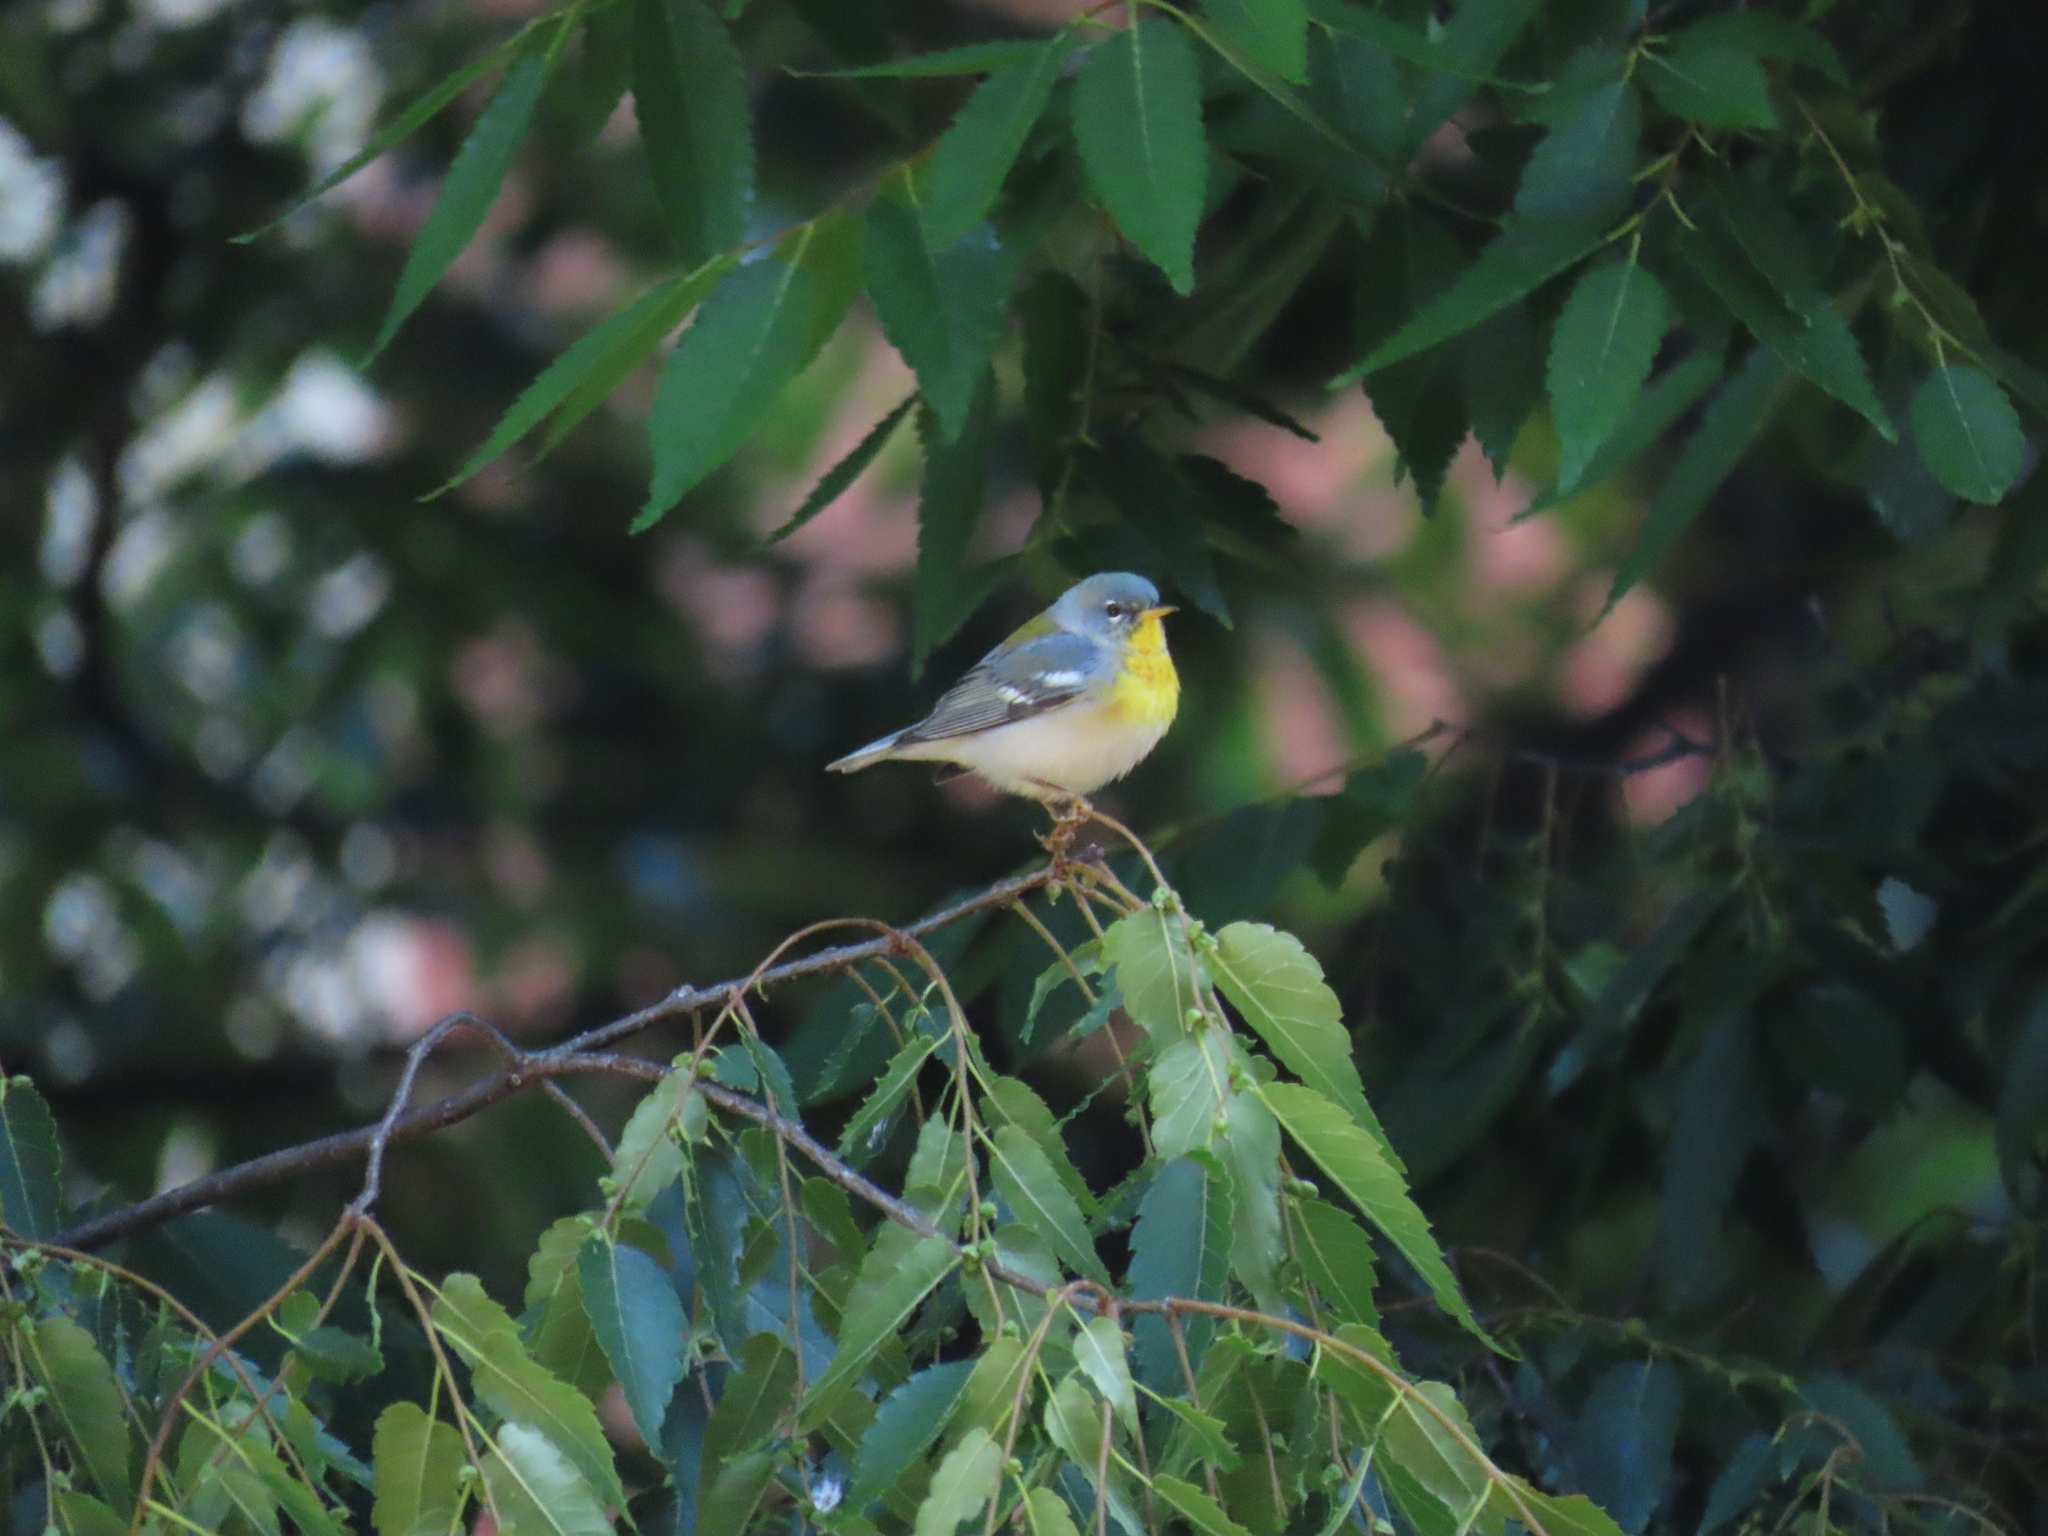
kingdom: Animalia
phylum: Chordata
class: Aves
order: Passeriformes
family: Parulidae
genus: Setophaga
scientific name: Setophaga americana
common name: Northern parula
